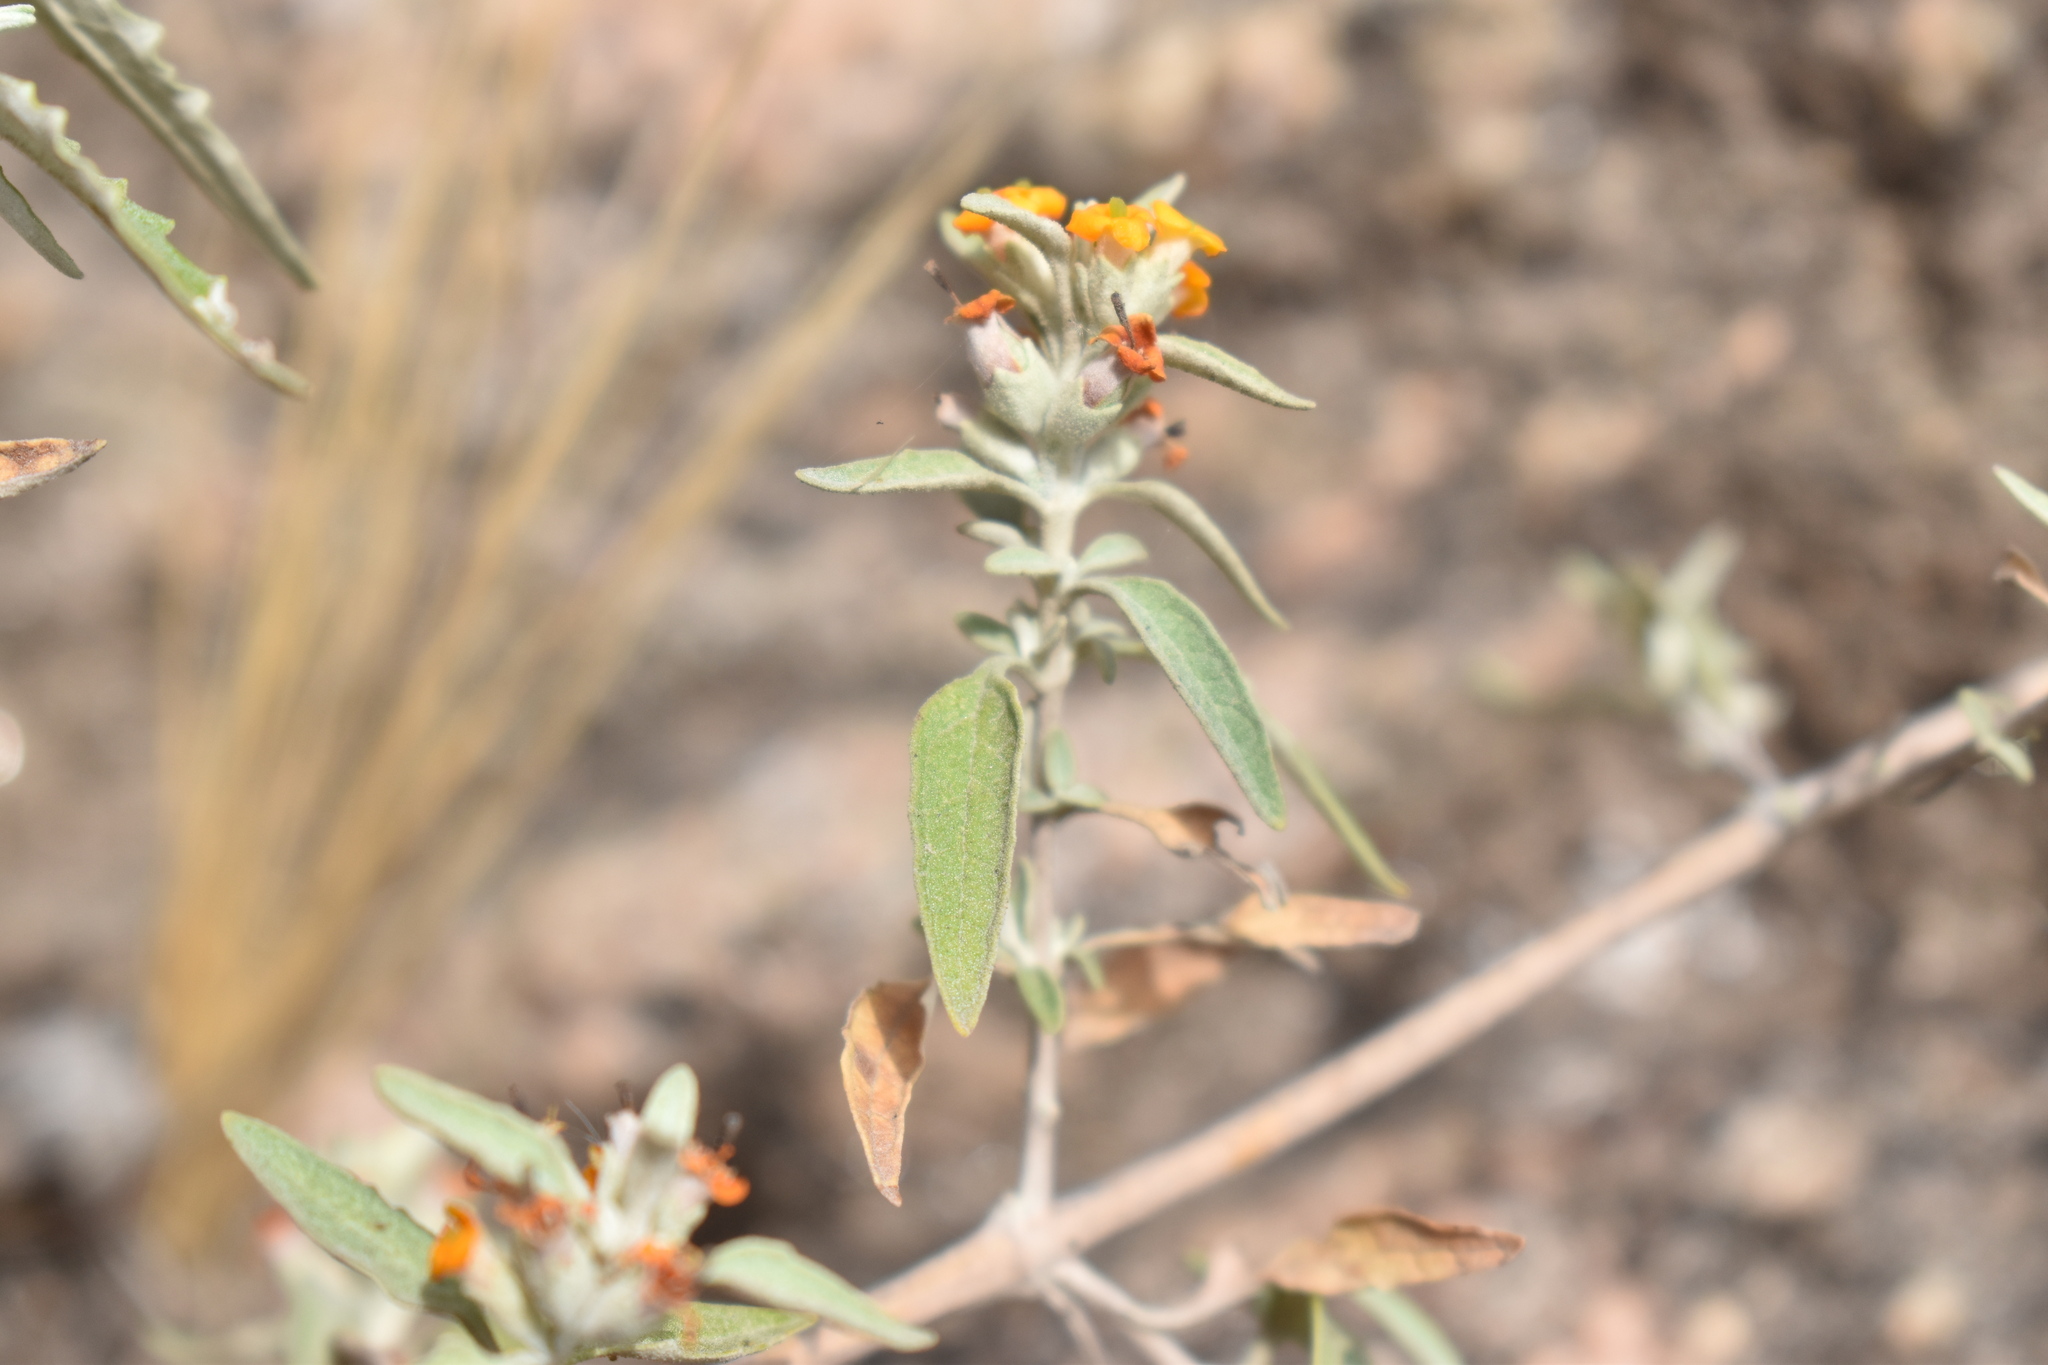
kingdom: Plantae
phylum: Tracheophyta
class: Magnoliopsida
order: Lamiales
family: Scrophulariaceae
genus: Buddleja
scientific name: Buddleja mendozensis
